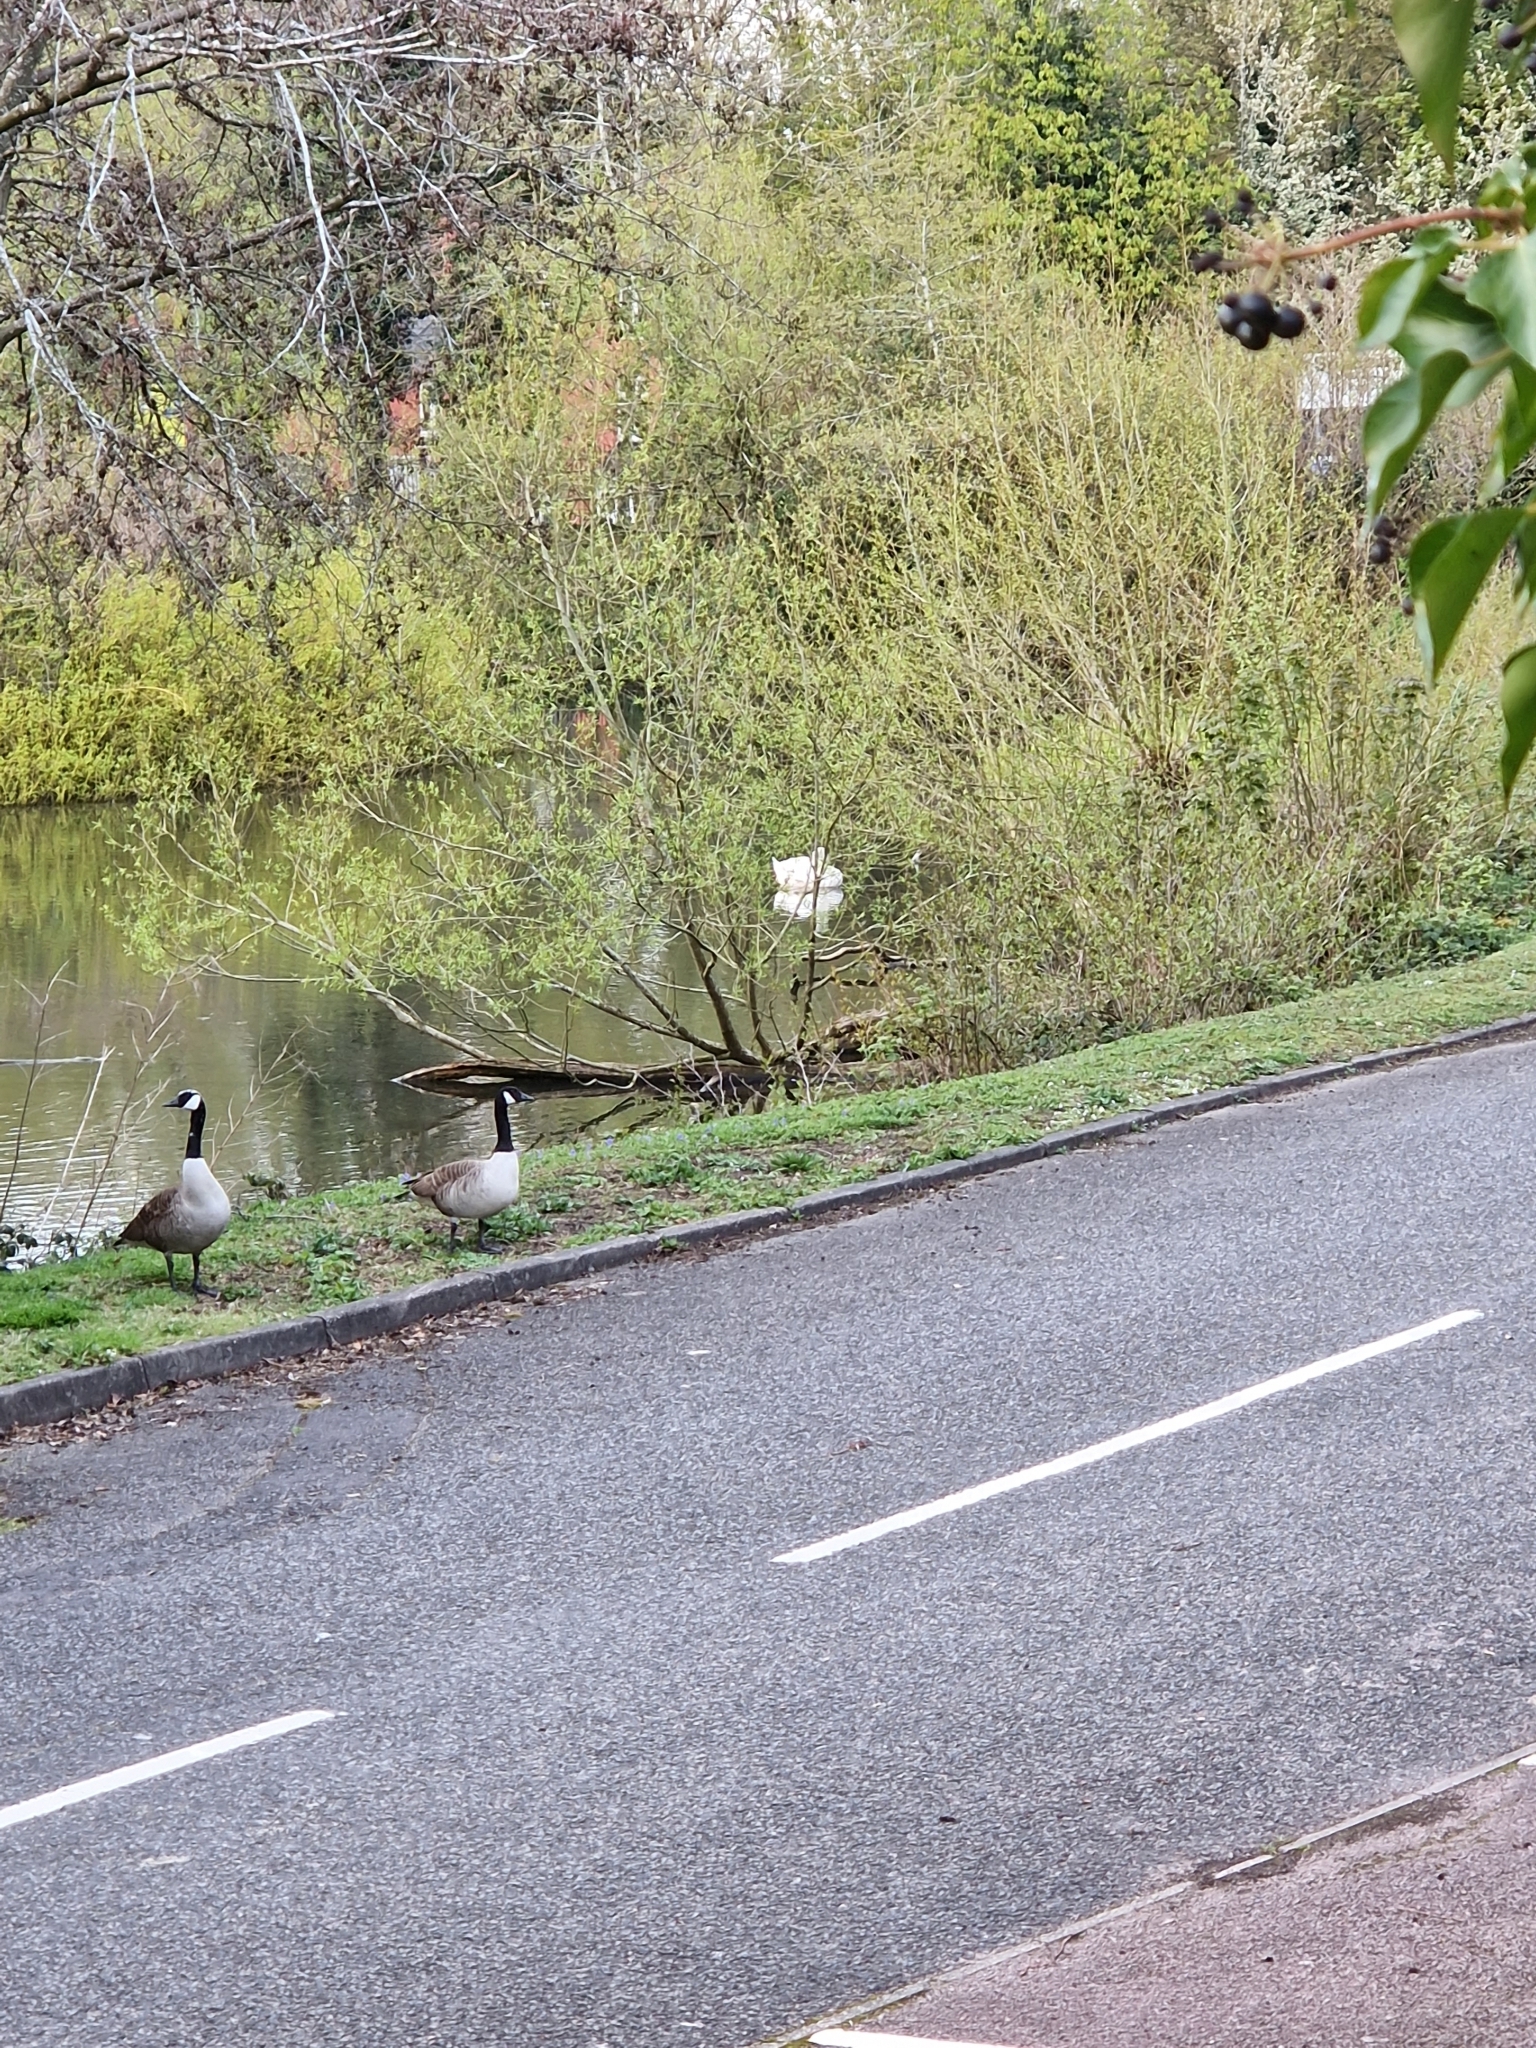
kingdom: Animalia
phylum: Chordata
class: Aves
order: Anseriformes
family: Anatidae
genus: Branta
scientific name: Branta canadensis
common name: Canada goose
